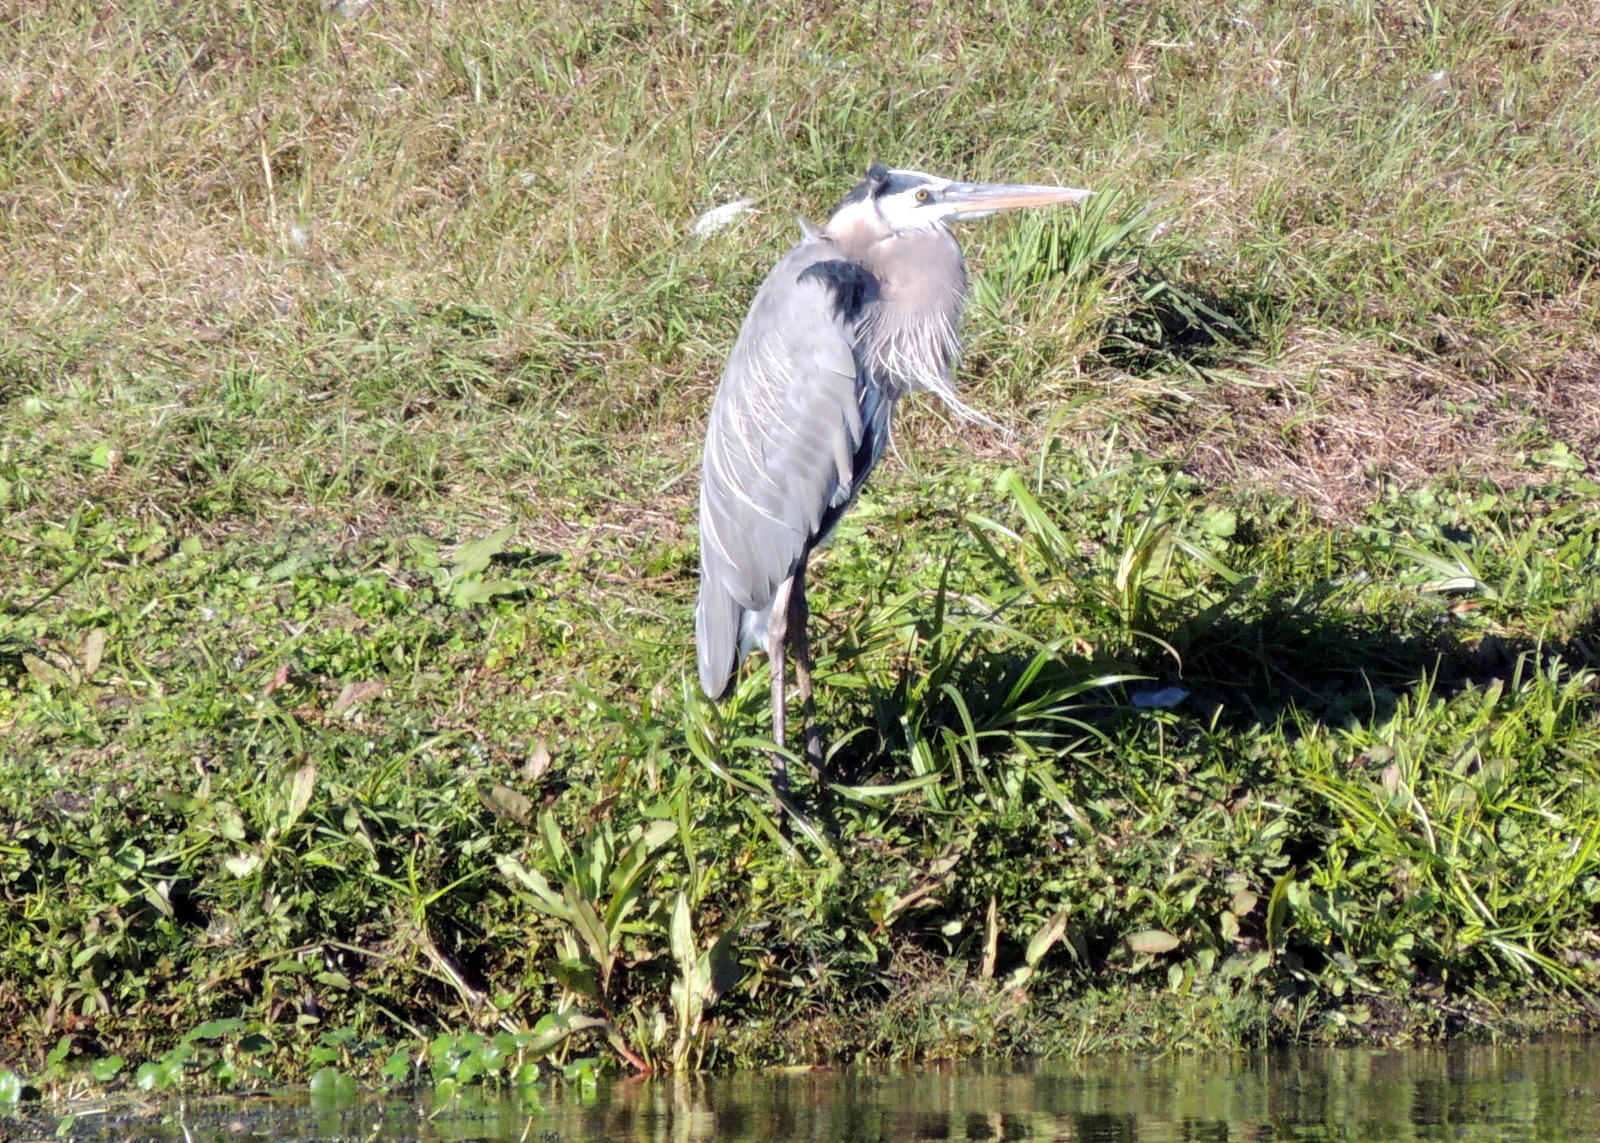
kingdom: Animalia
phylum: Chordata
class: Aves
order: Pelecaniformes
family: Ardeidae
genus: Ardea
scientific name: Ardea herodias
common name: Great blue heron
